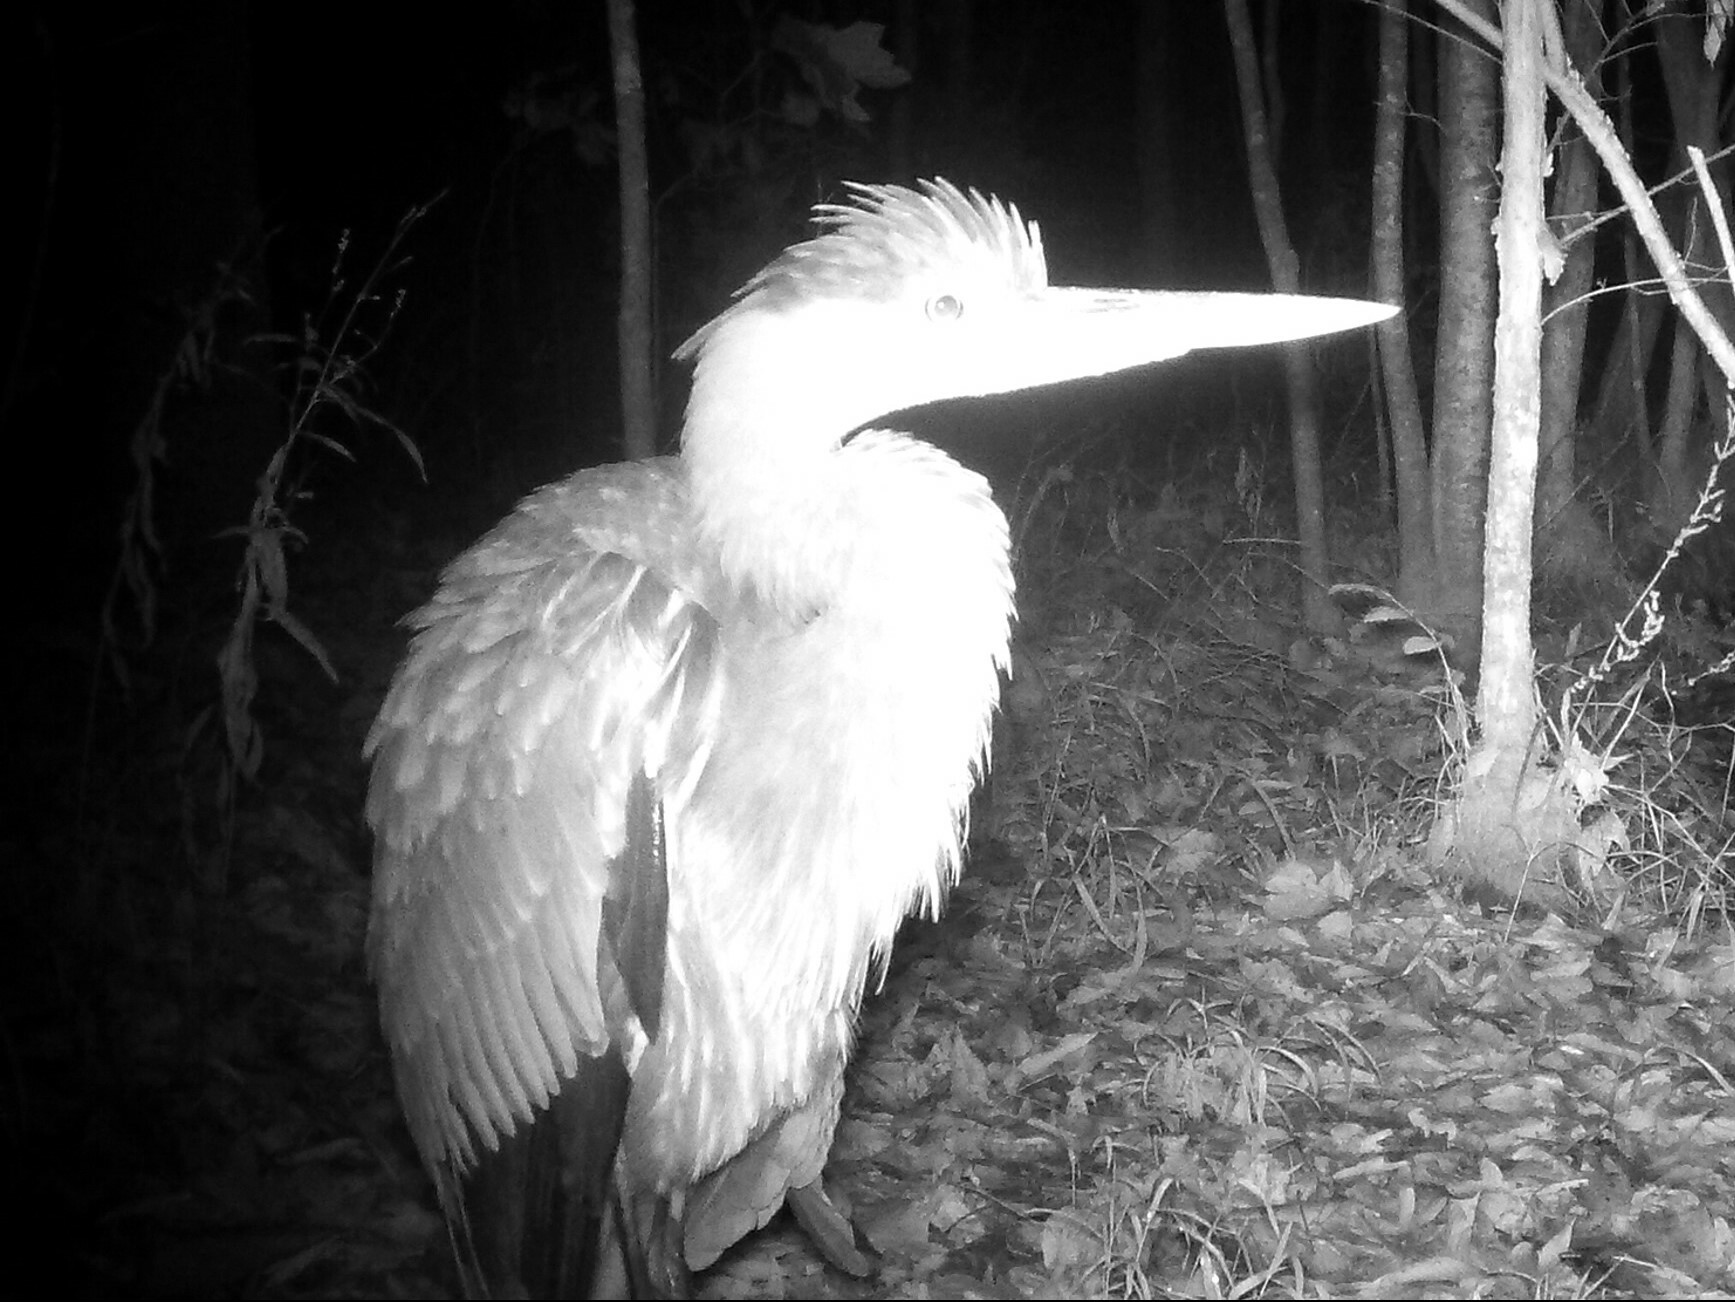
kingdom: Animalia
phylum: Chordata
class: Aves
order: Pelecaniformes
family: Ardeidae
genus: Ardea
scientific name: Ardea herodias
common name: Great blue heron
